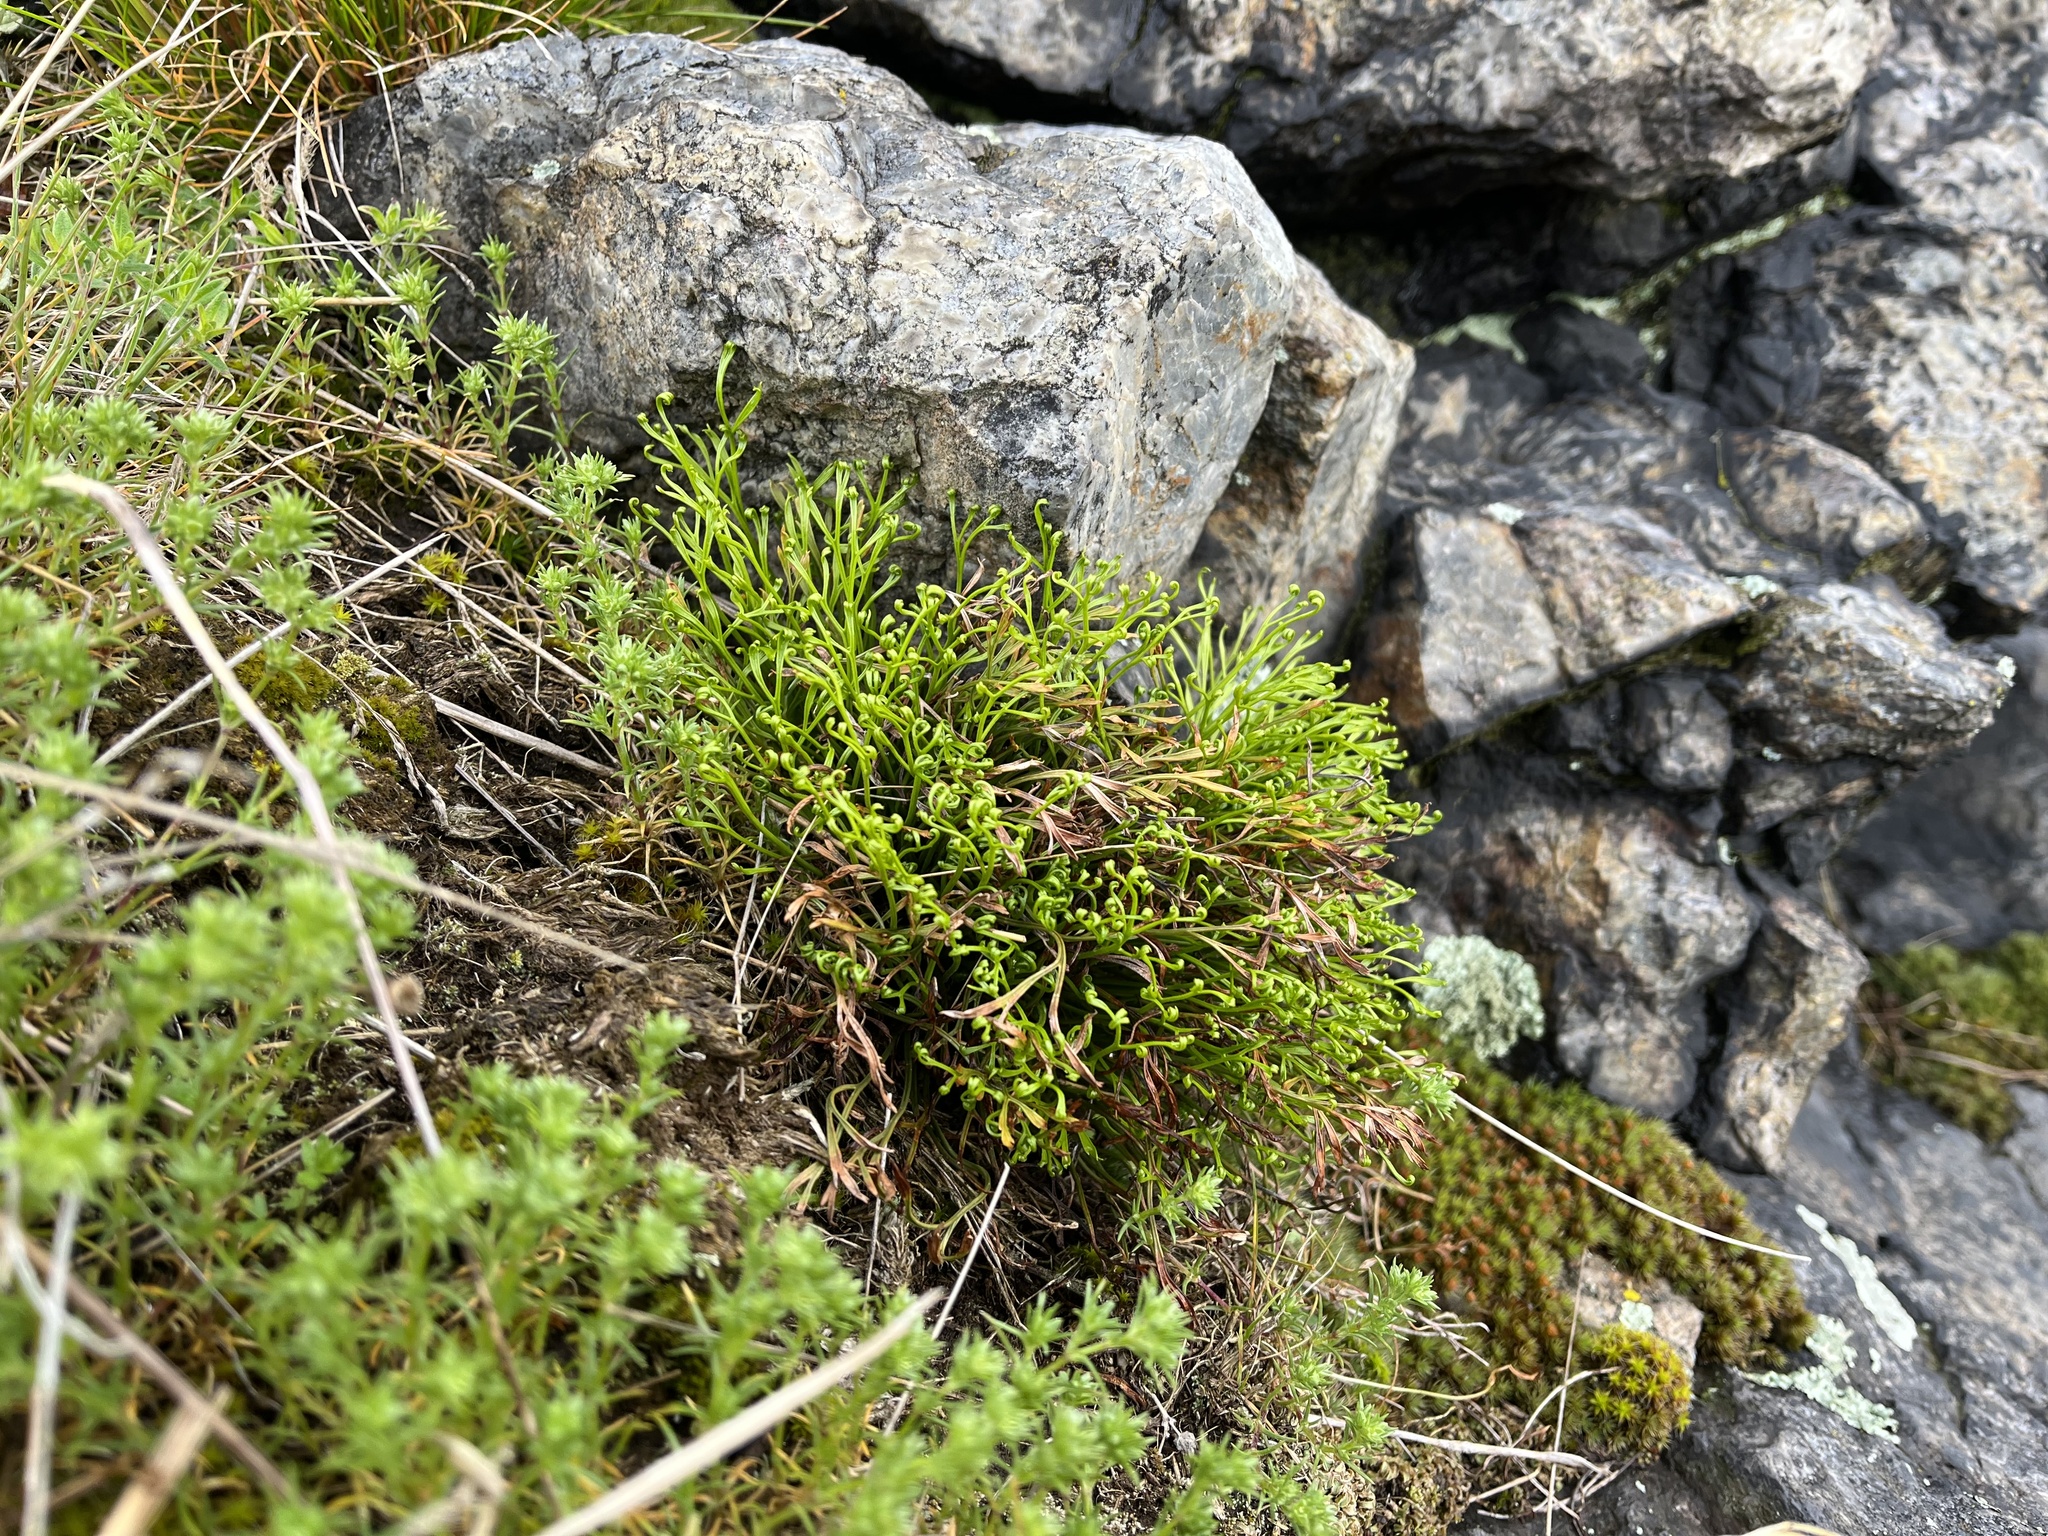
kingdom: Plantae
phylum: Tracheophyta
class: Polypodiopsida
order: Polypodiales
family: Aspleniaceae
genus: Asplenium
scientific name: Asplenium septentrionale
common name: Forked spleenwort
